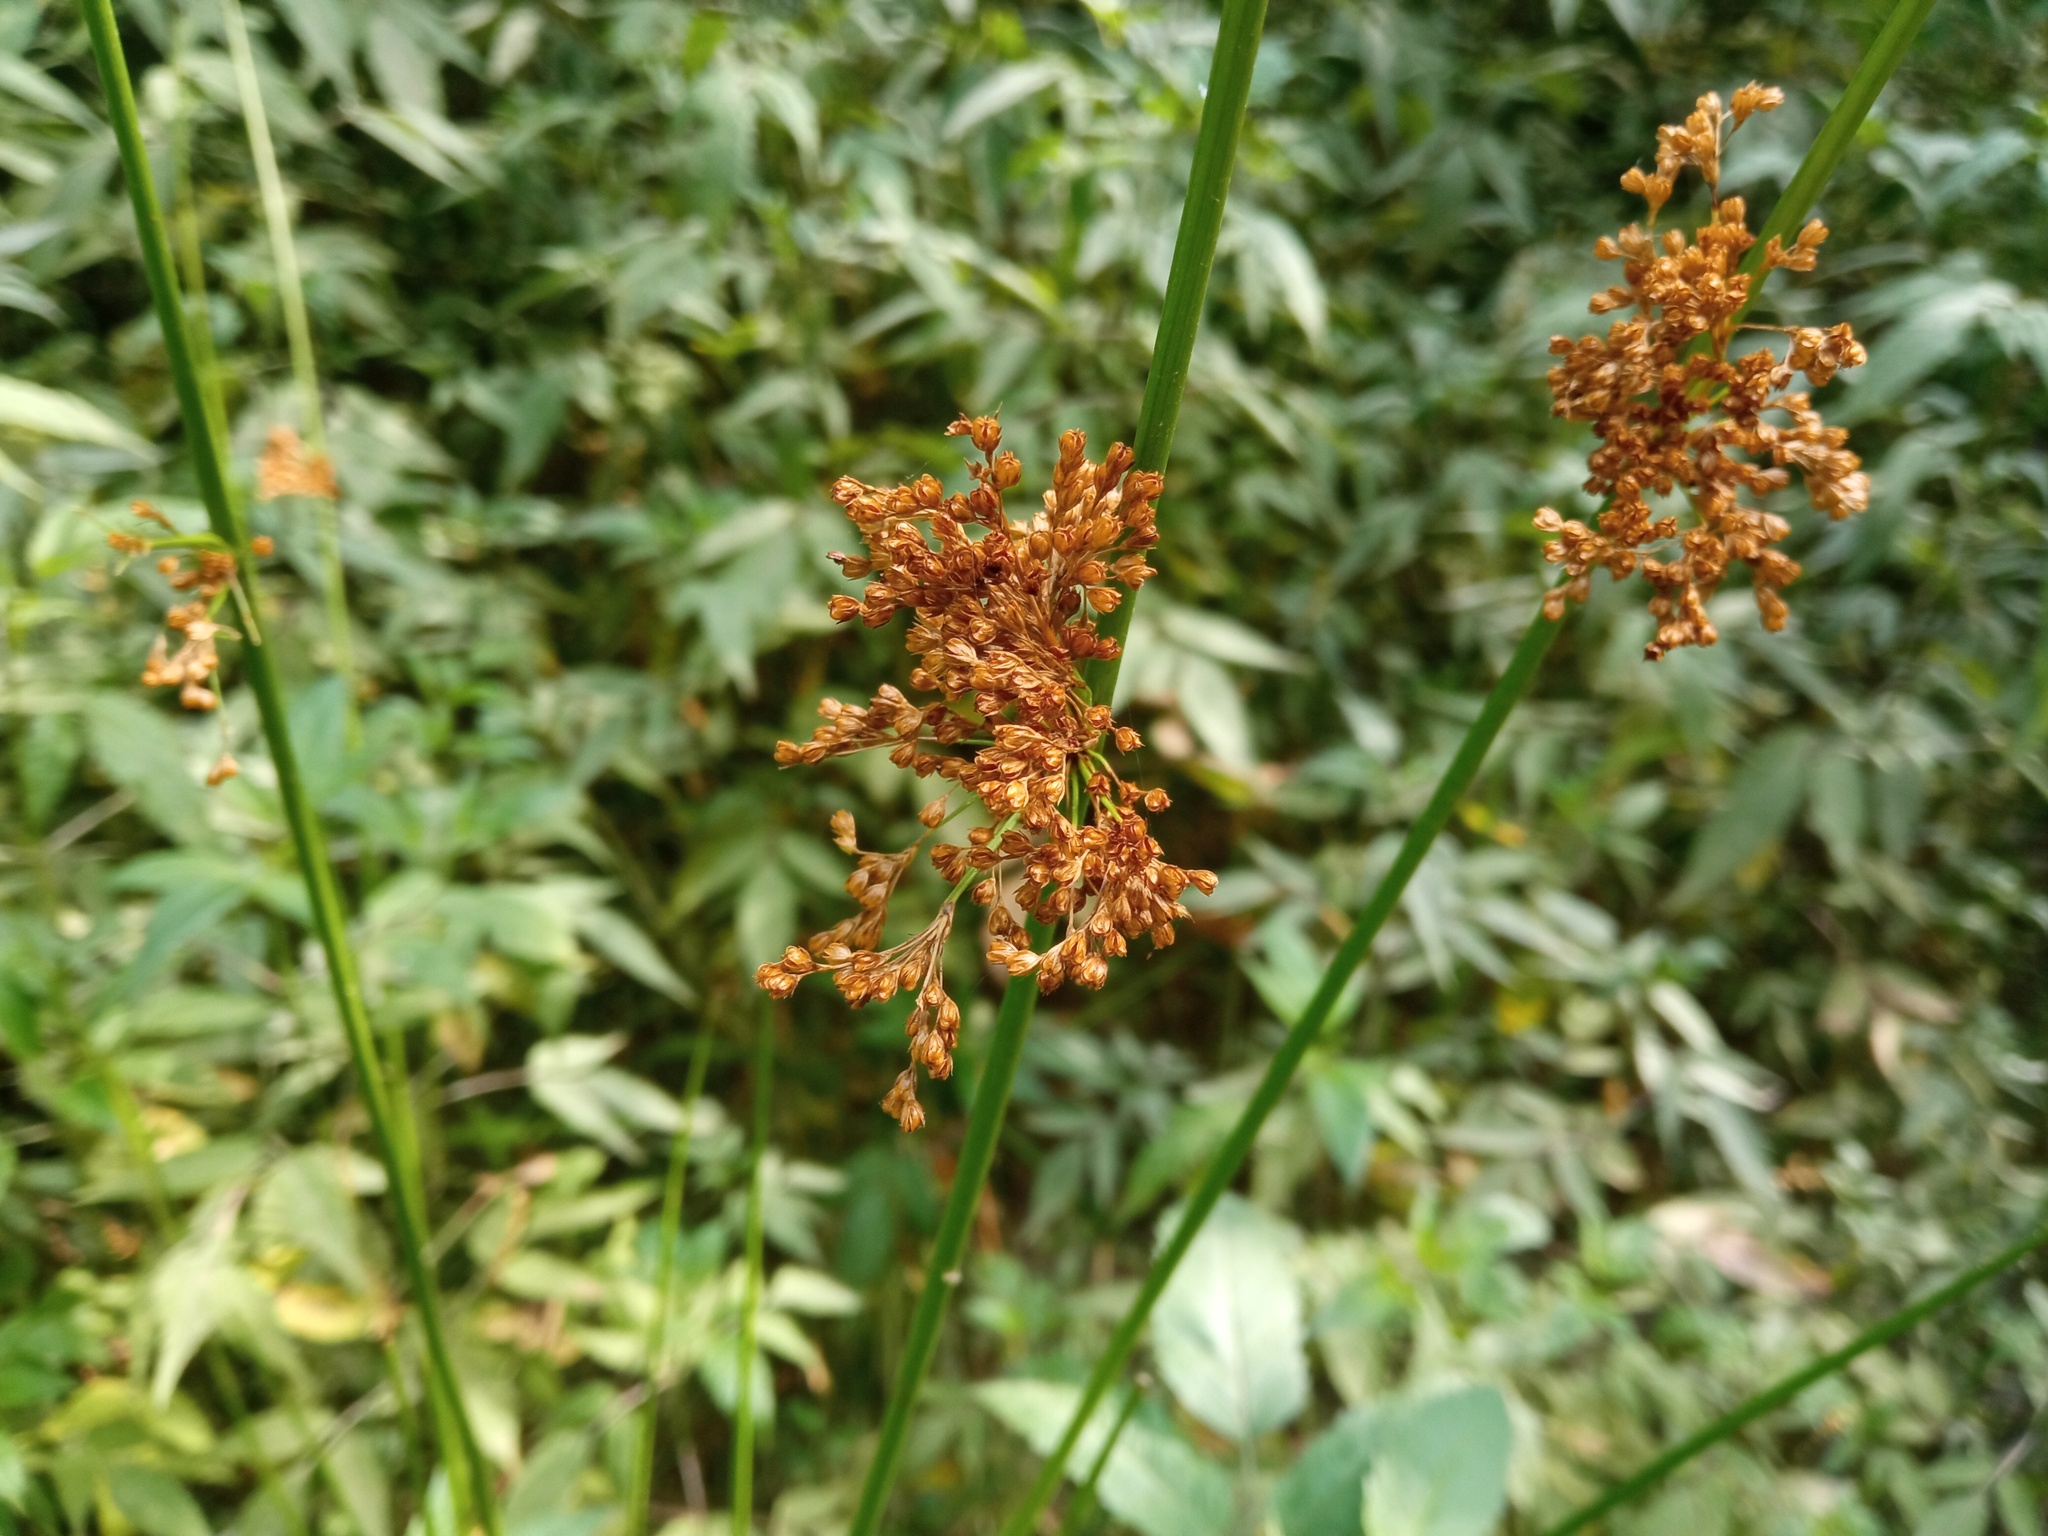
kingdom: Plantae
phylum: Tracheophyta
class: Liliopsida
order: Poales
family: Juncaceae
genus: Juncus
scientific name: Juncus effusus
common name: Soft rush
